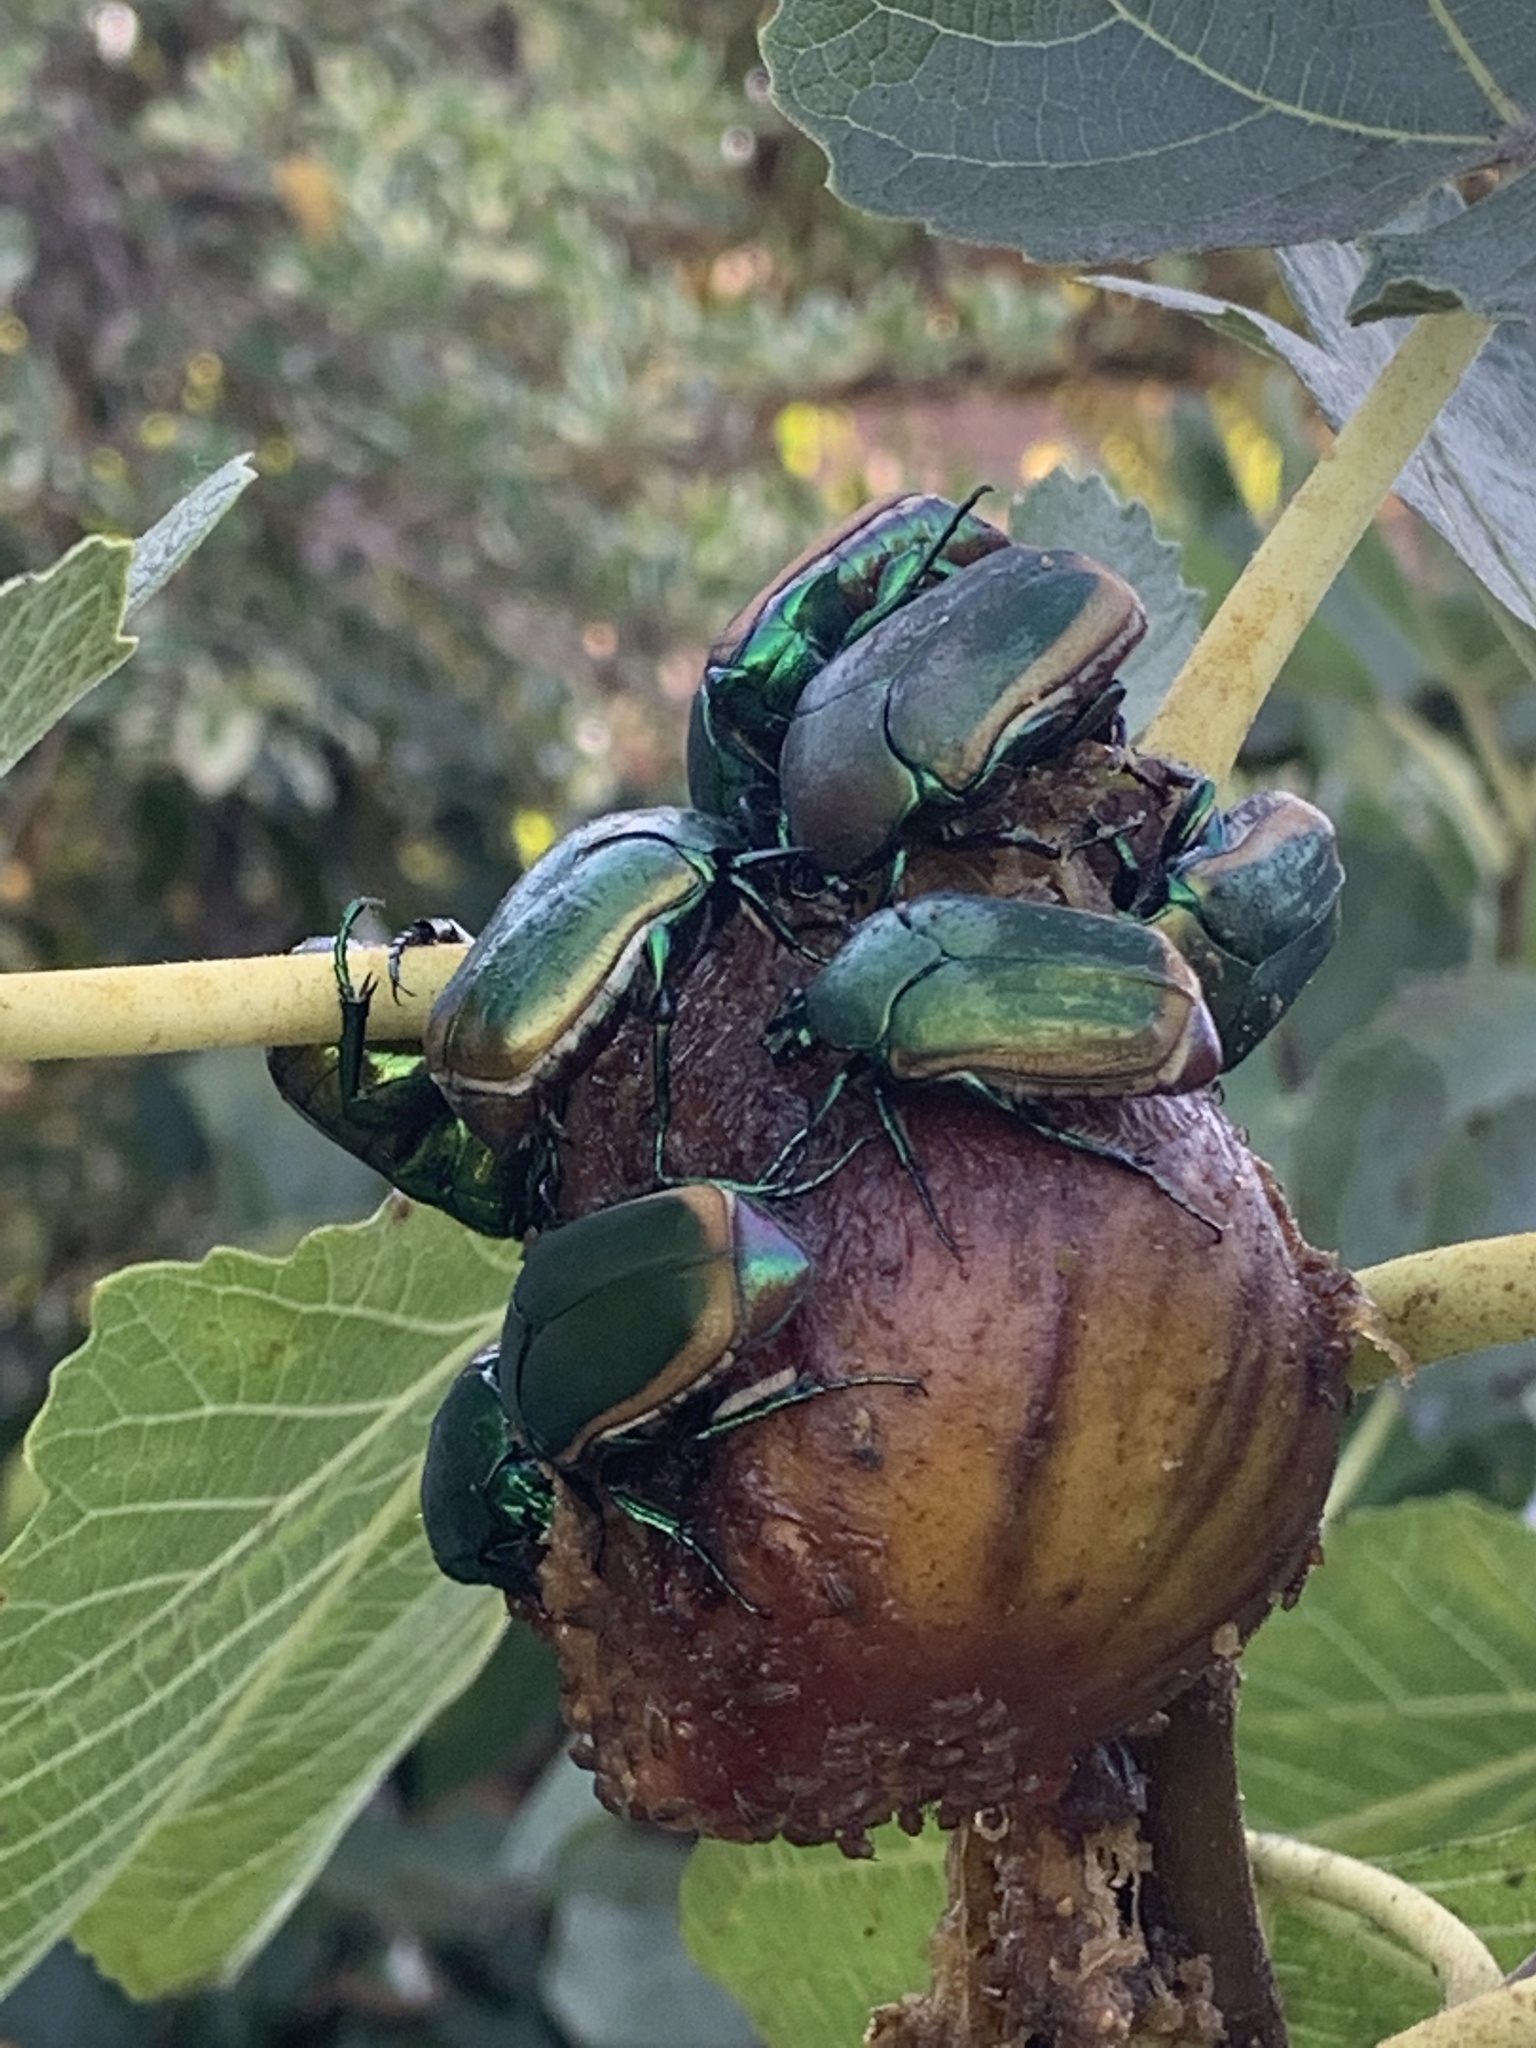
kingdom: Animalia
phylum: Arthropoda
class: Insecta
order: Coleoptera
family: Scarabaeidae
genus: Cotinis
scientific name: Cotinis mutabilis
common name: Figeater beetle
